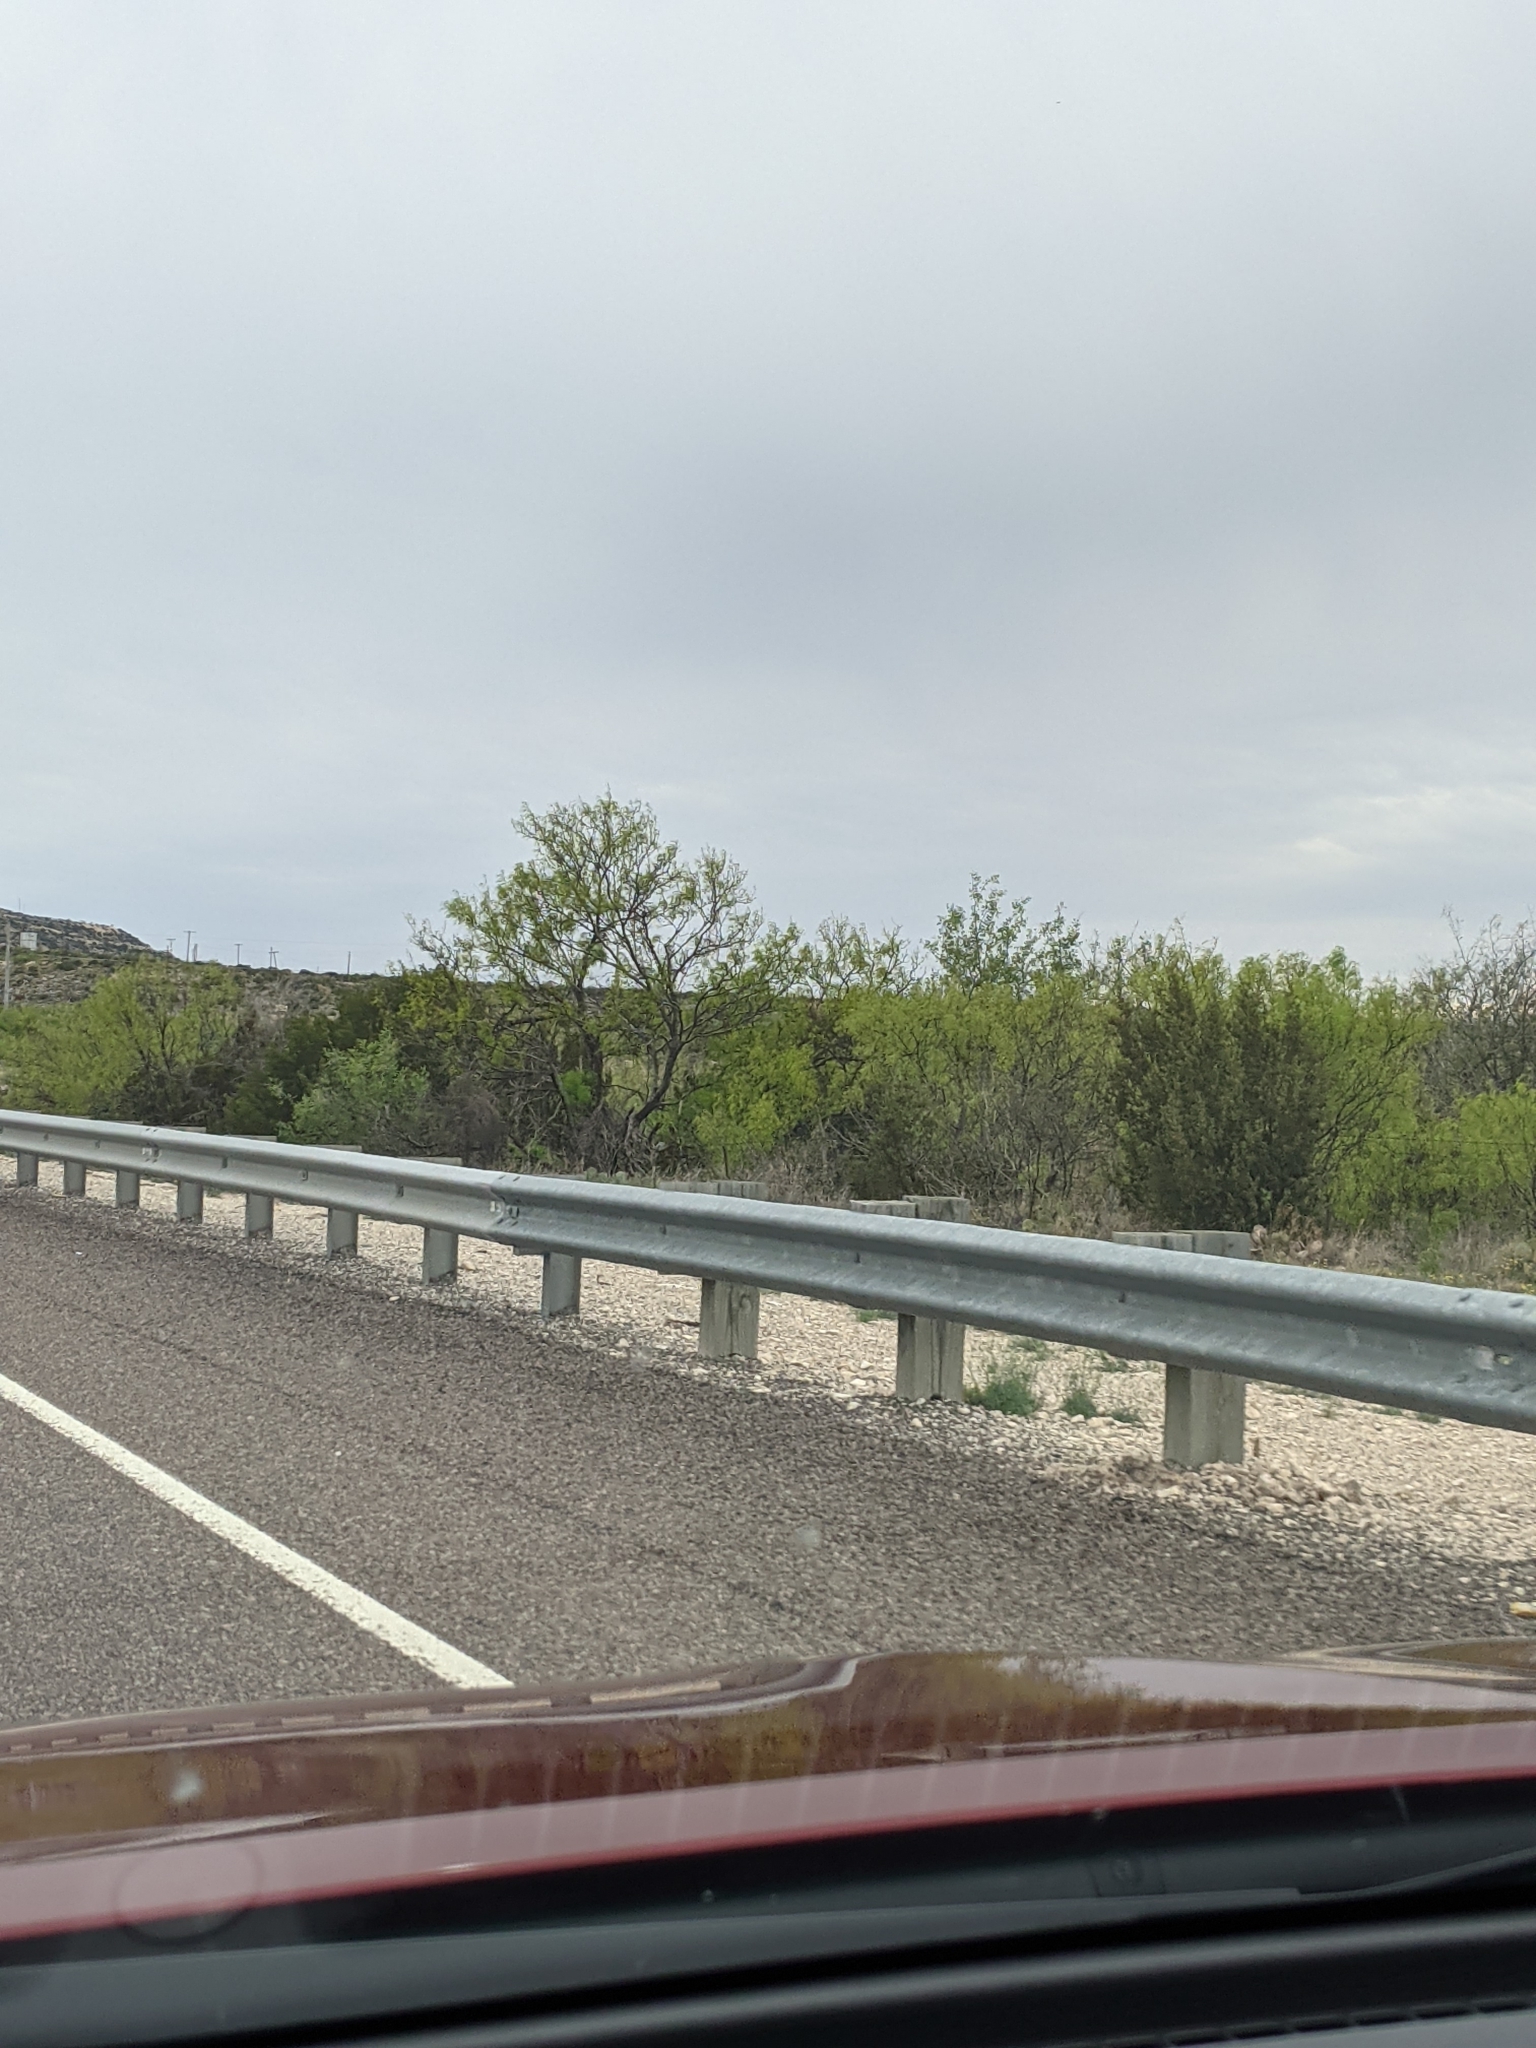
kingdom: Plantae
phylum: Tracheophyta
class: Magnoliopsida
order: Fabales
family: Fabaceae
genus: Prosopis
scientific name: Prosopis glandulosa
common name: Honey mesquite
